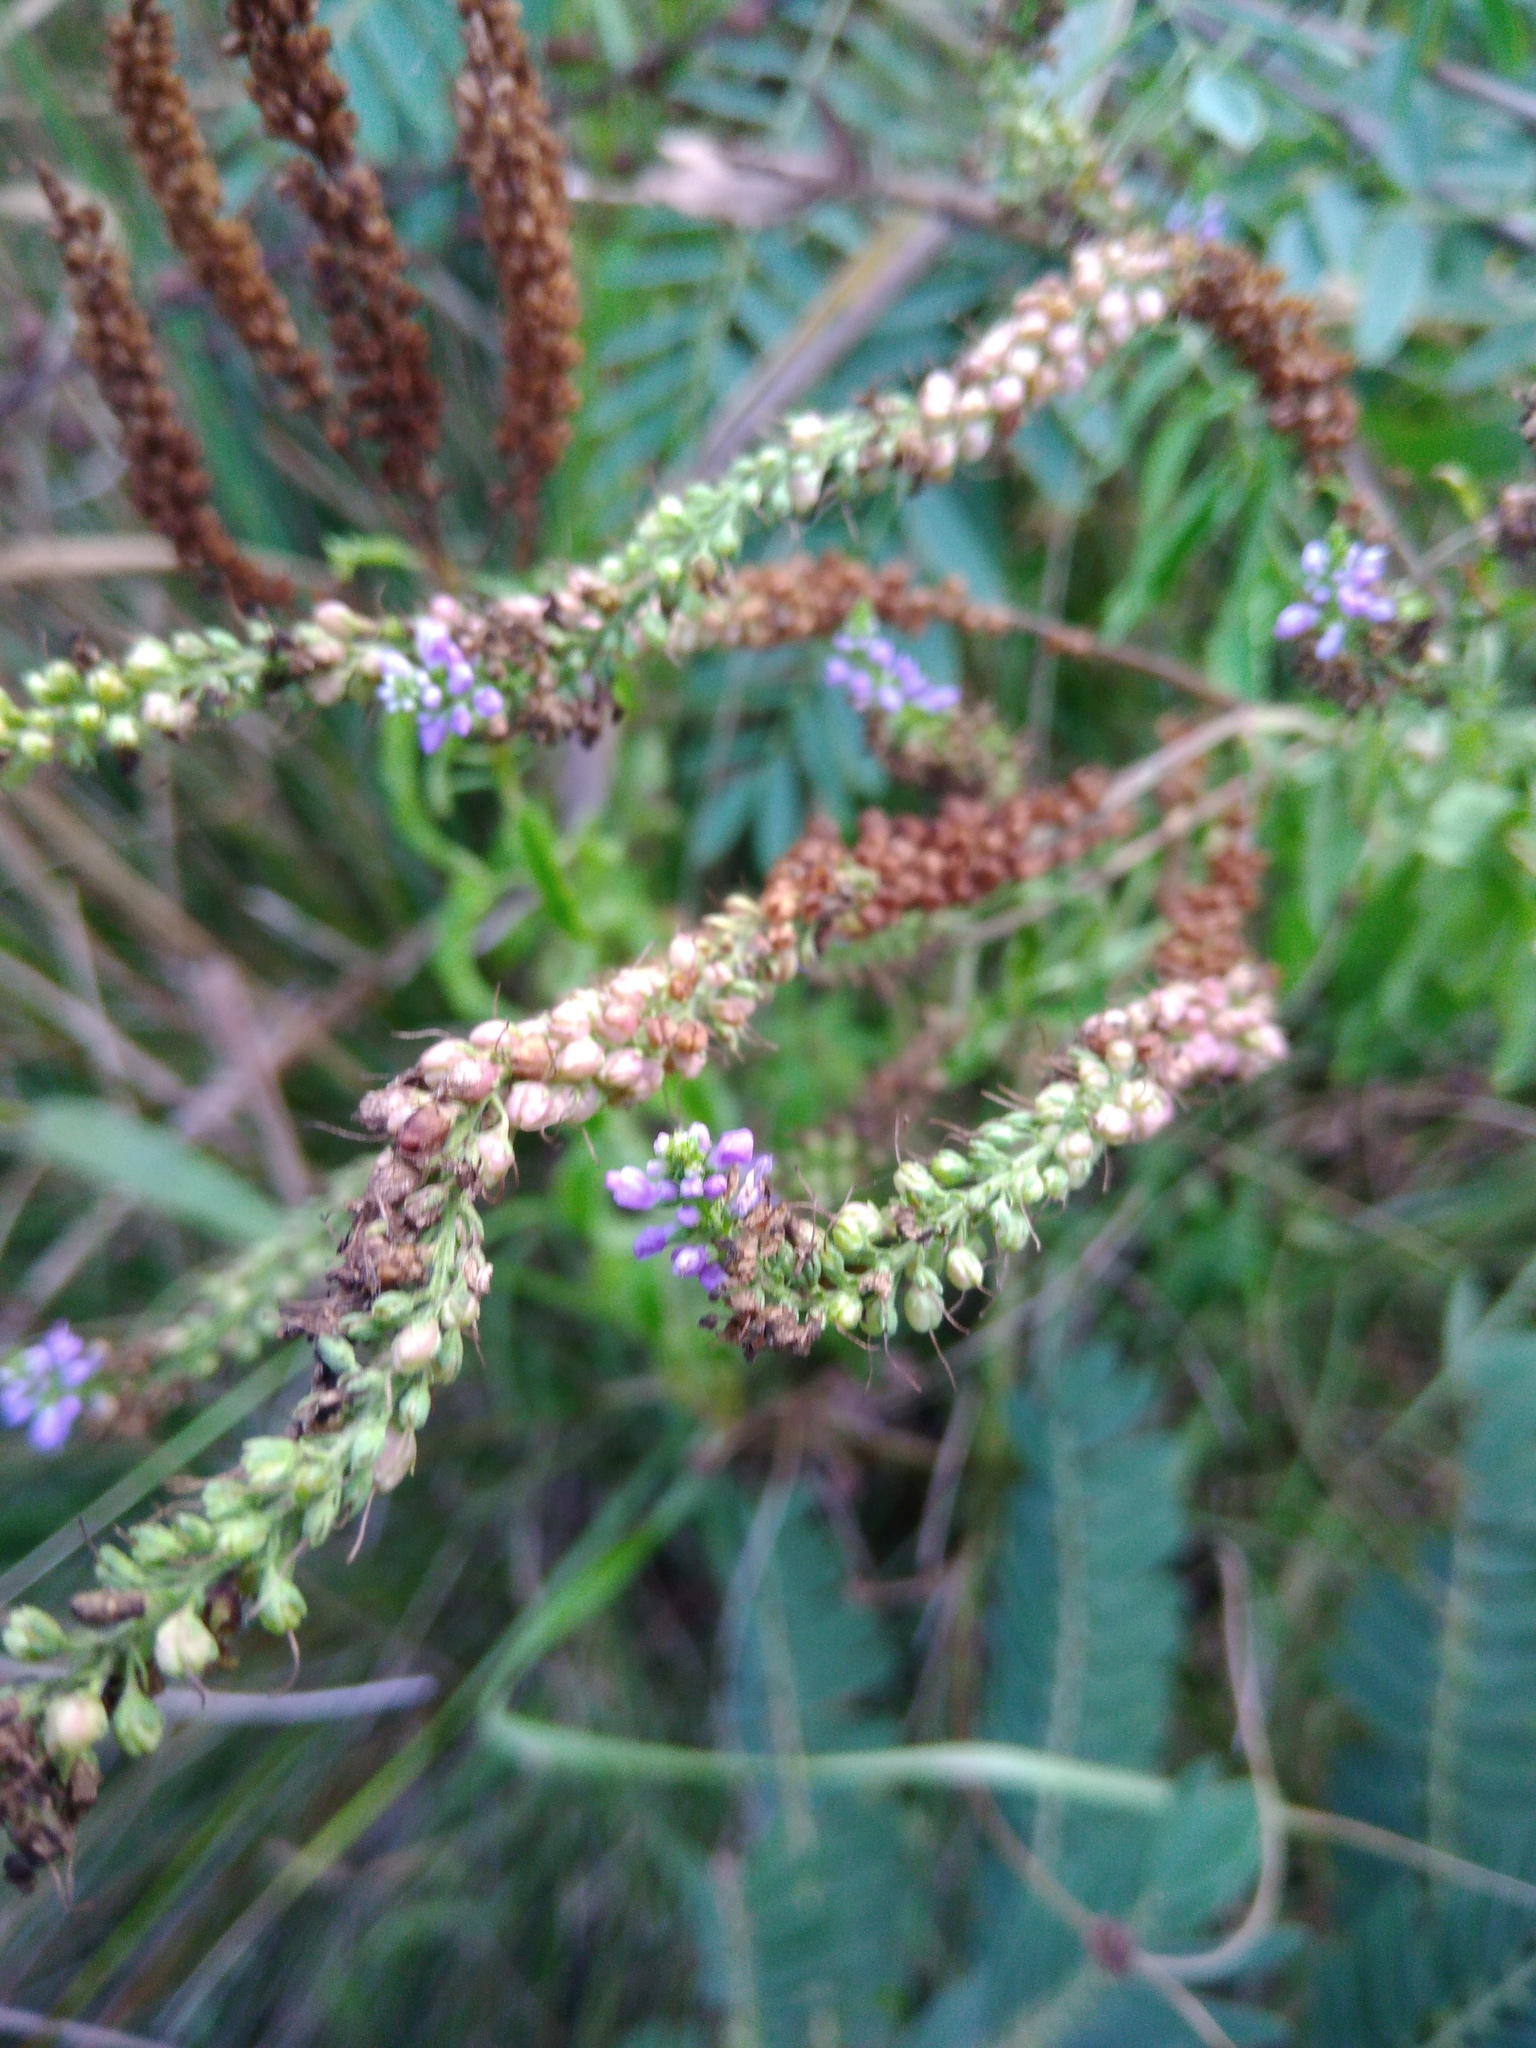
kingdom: Plantae
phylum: Tracheophyta
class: Magnoliopsida
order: Lamiales
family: Plantaginaceae
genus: Veronica
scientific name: Veronica longifolia
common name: Garden speedwell
